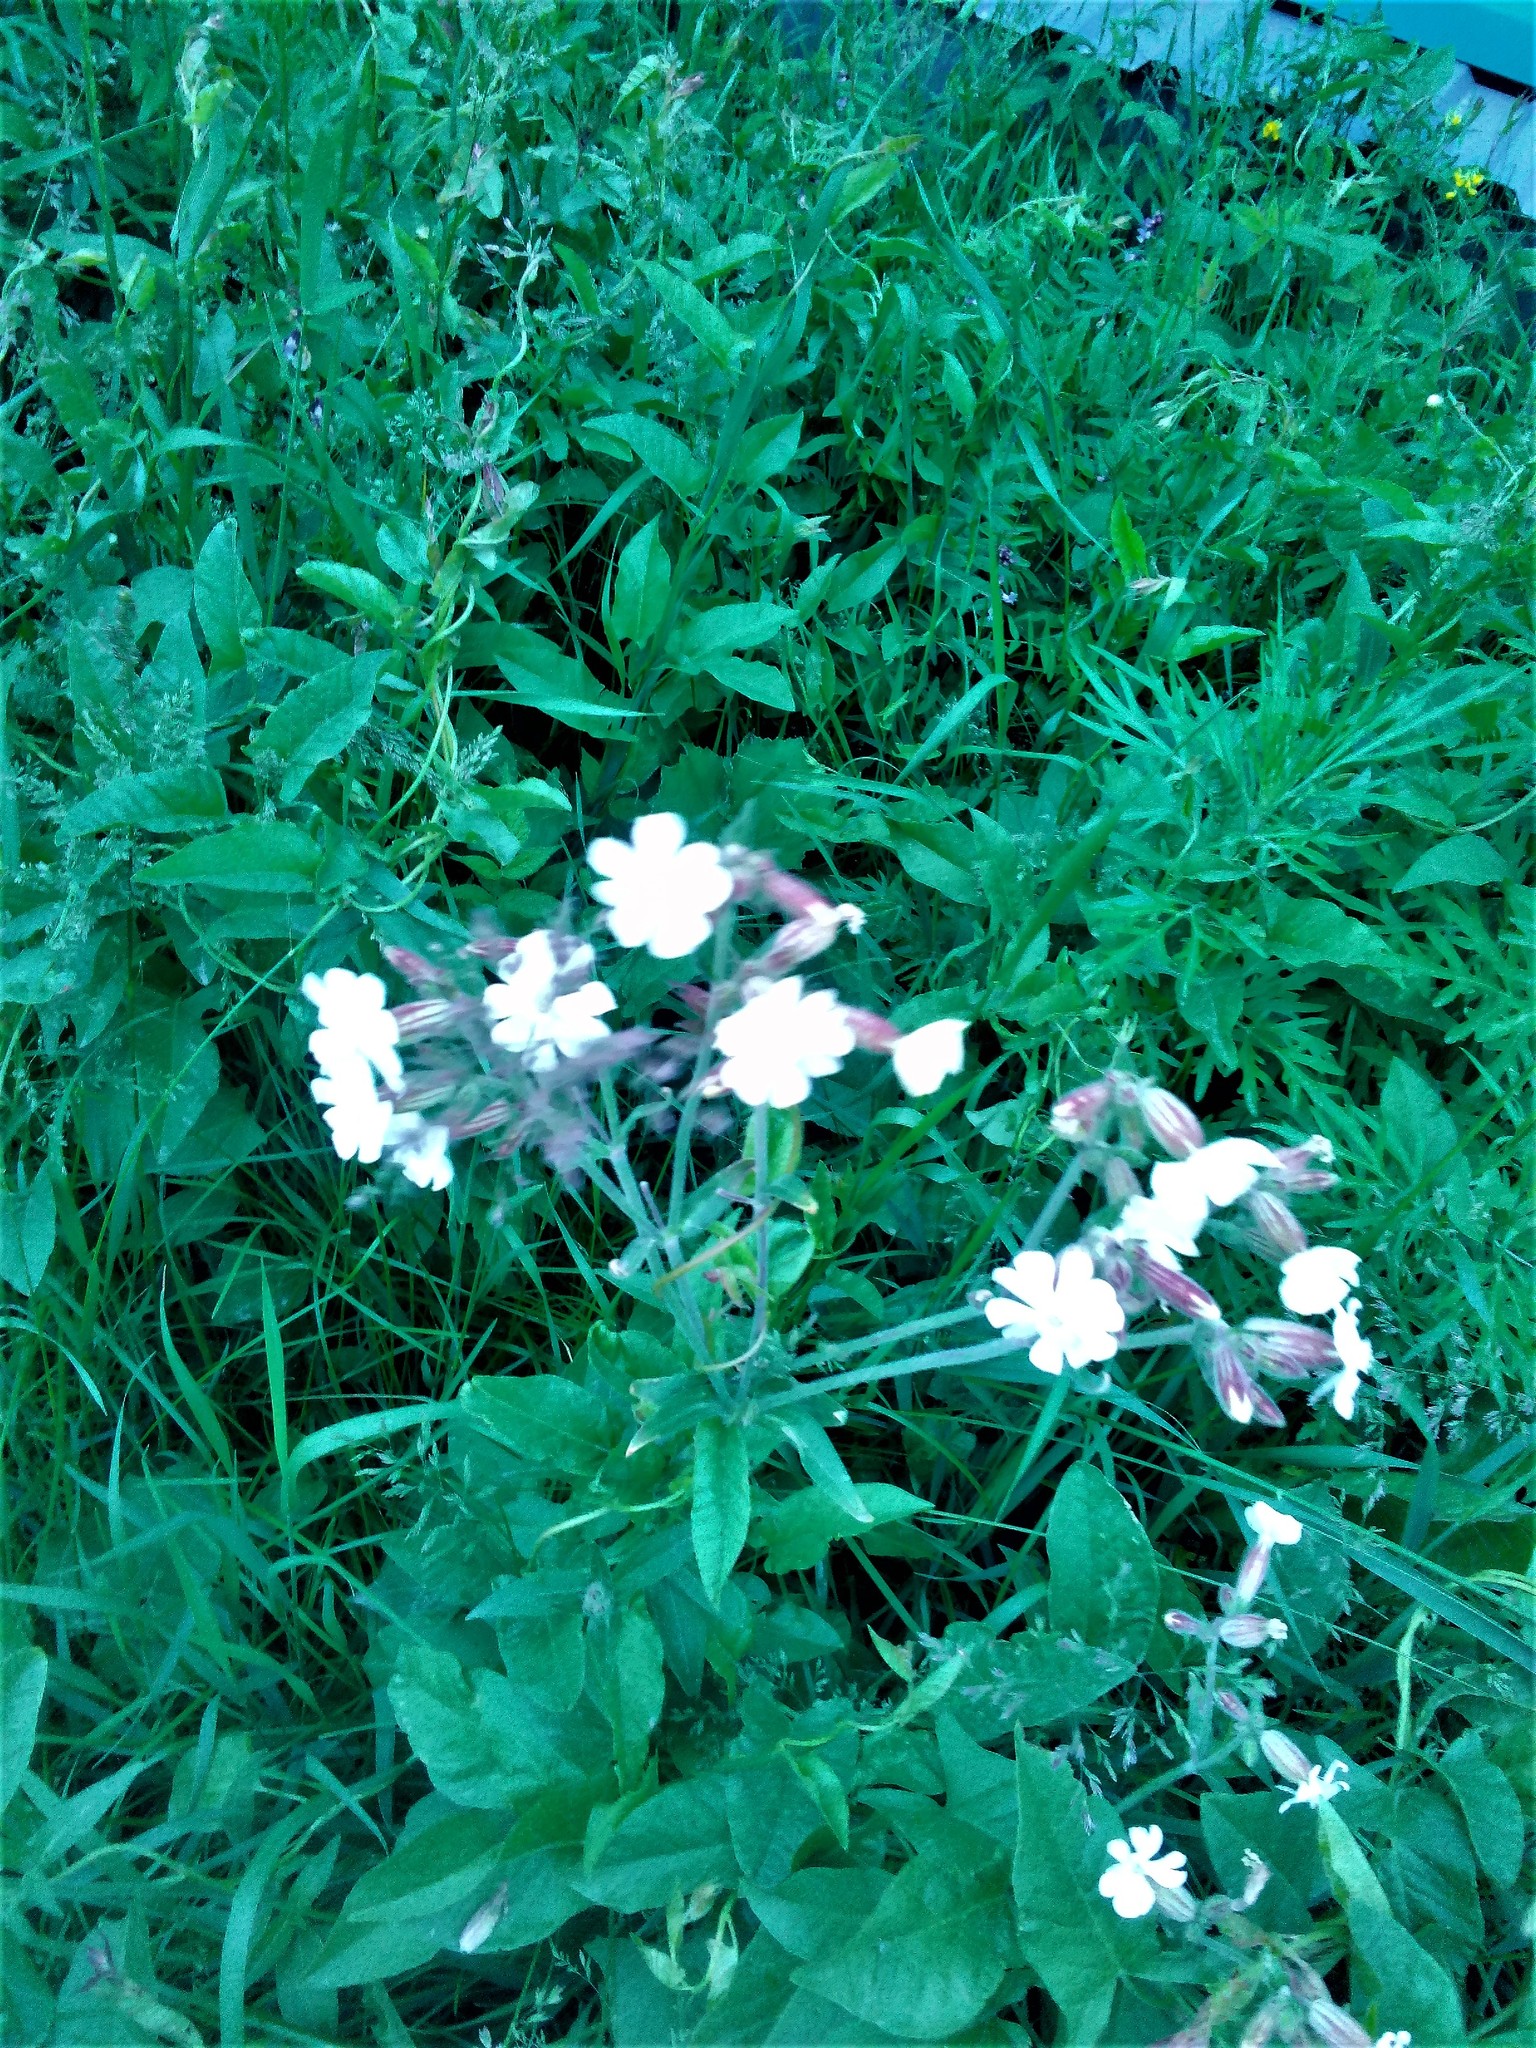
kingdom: Plantae
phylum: Tracheophyta
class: Magnoliopsida
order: Caryophyllales
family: Caryophyllaceae
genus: Silene
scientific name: Silene latifolia
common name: White campion
